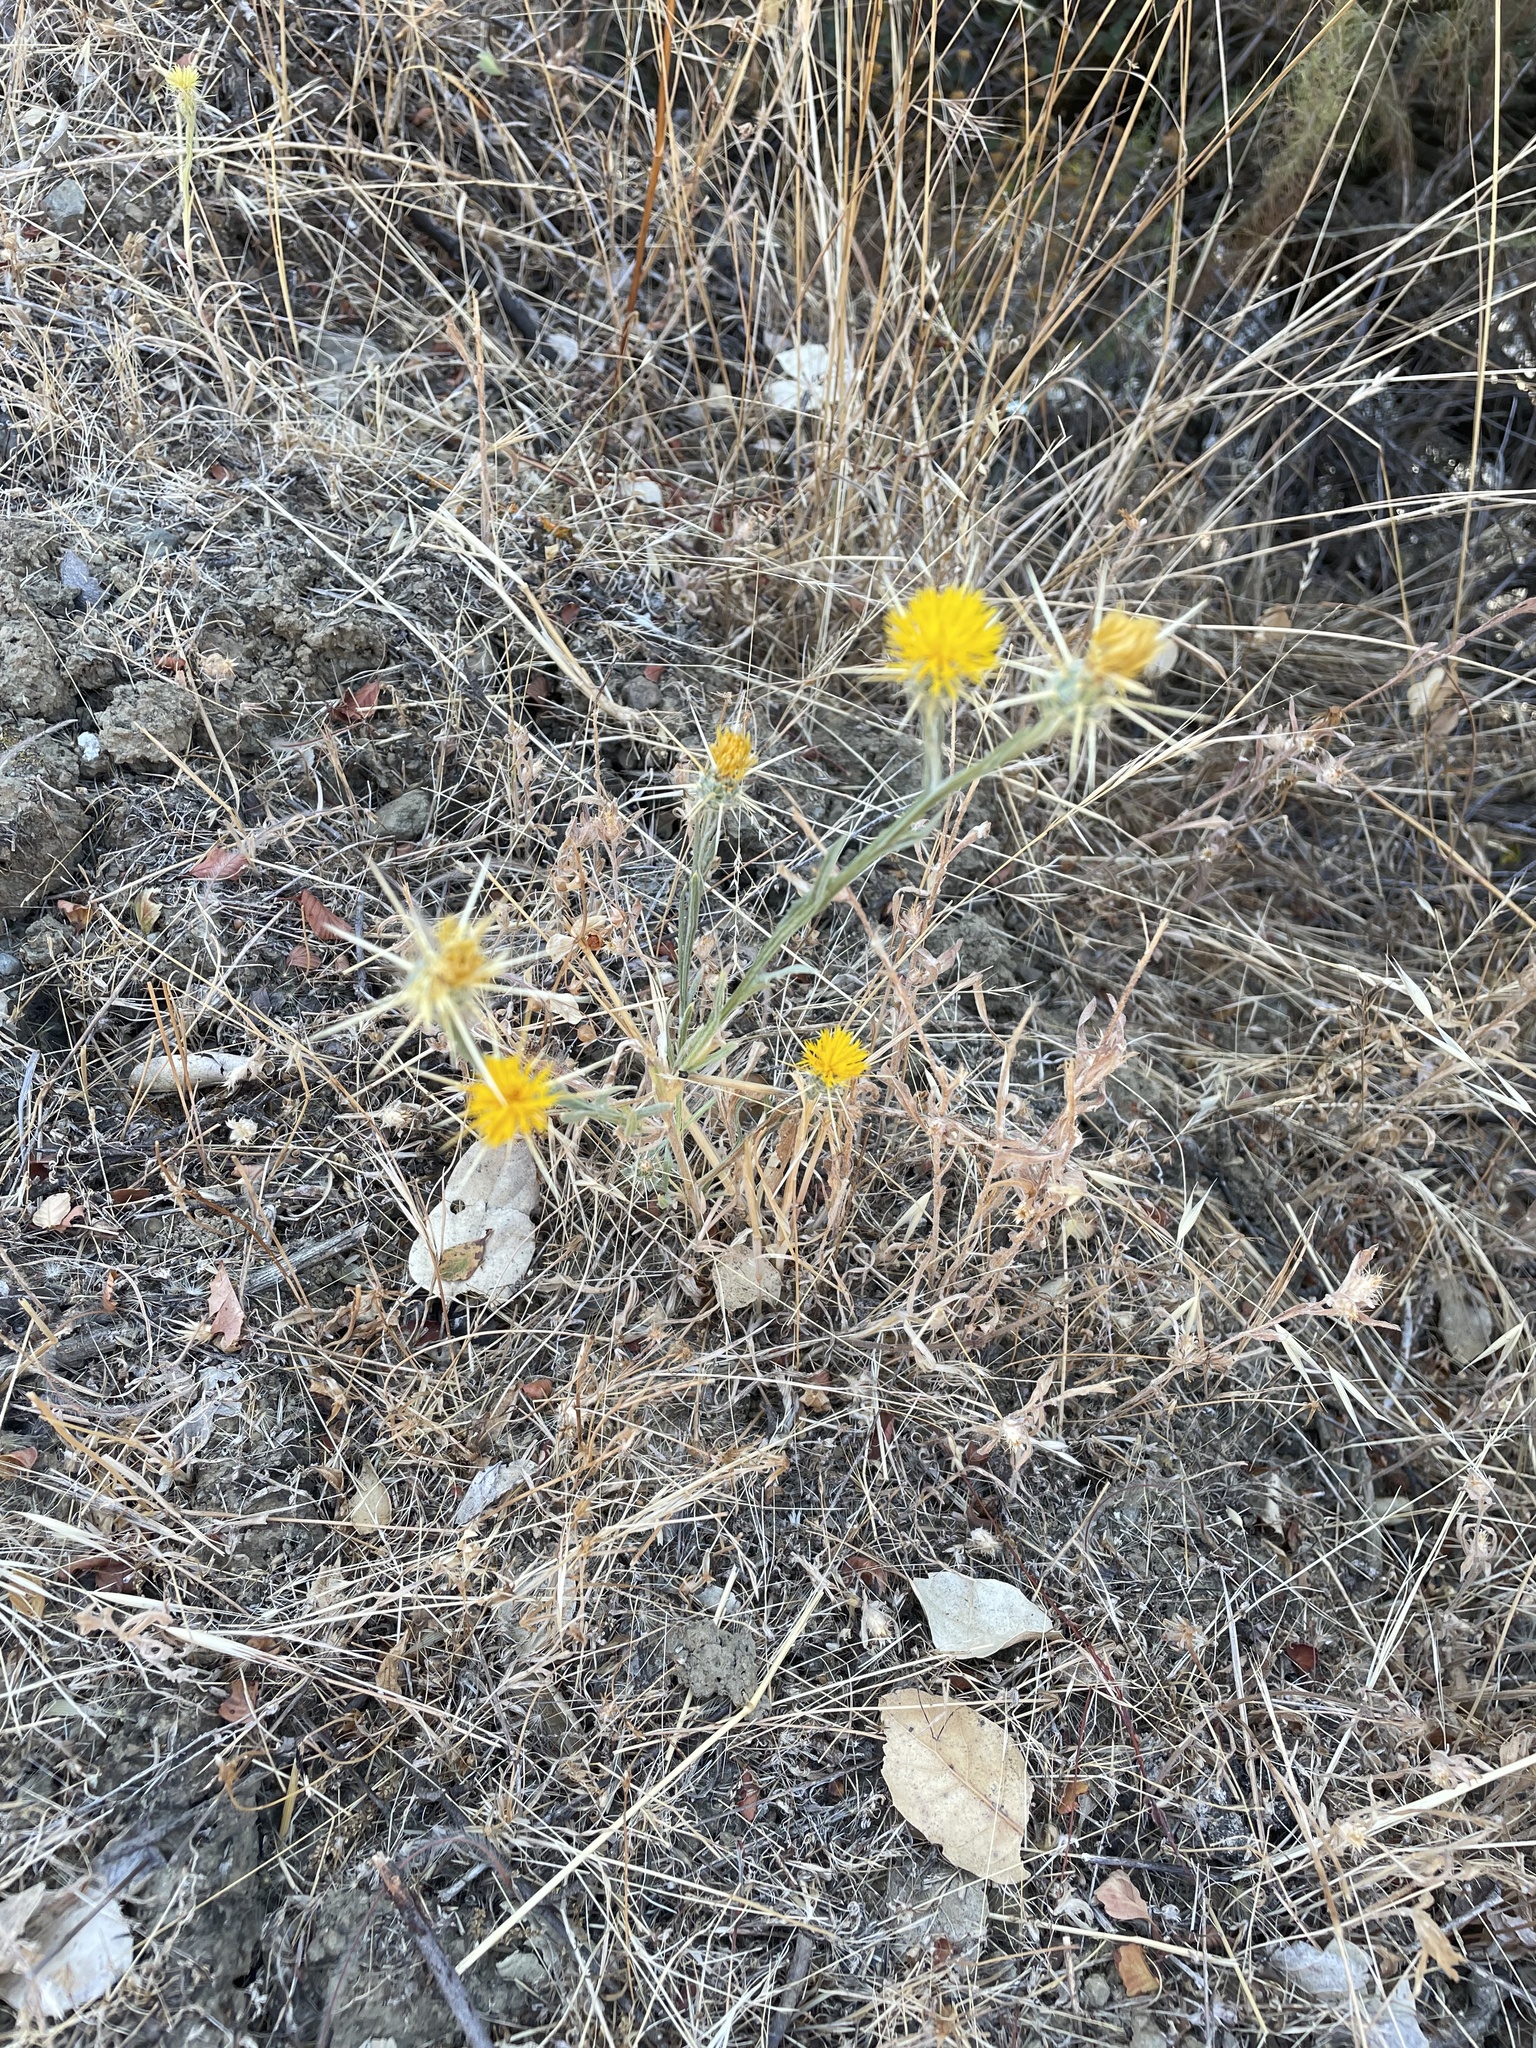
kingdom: Plantae
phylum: Tracheophyta
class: Magnoliopsida
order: Asterales
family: Asteraceae
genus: Centaurea
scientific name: Centaurea solstitialis
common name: Yellow star-thistle
